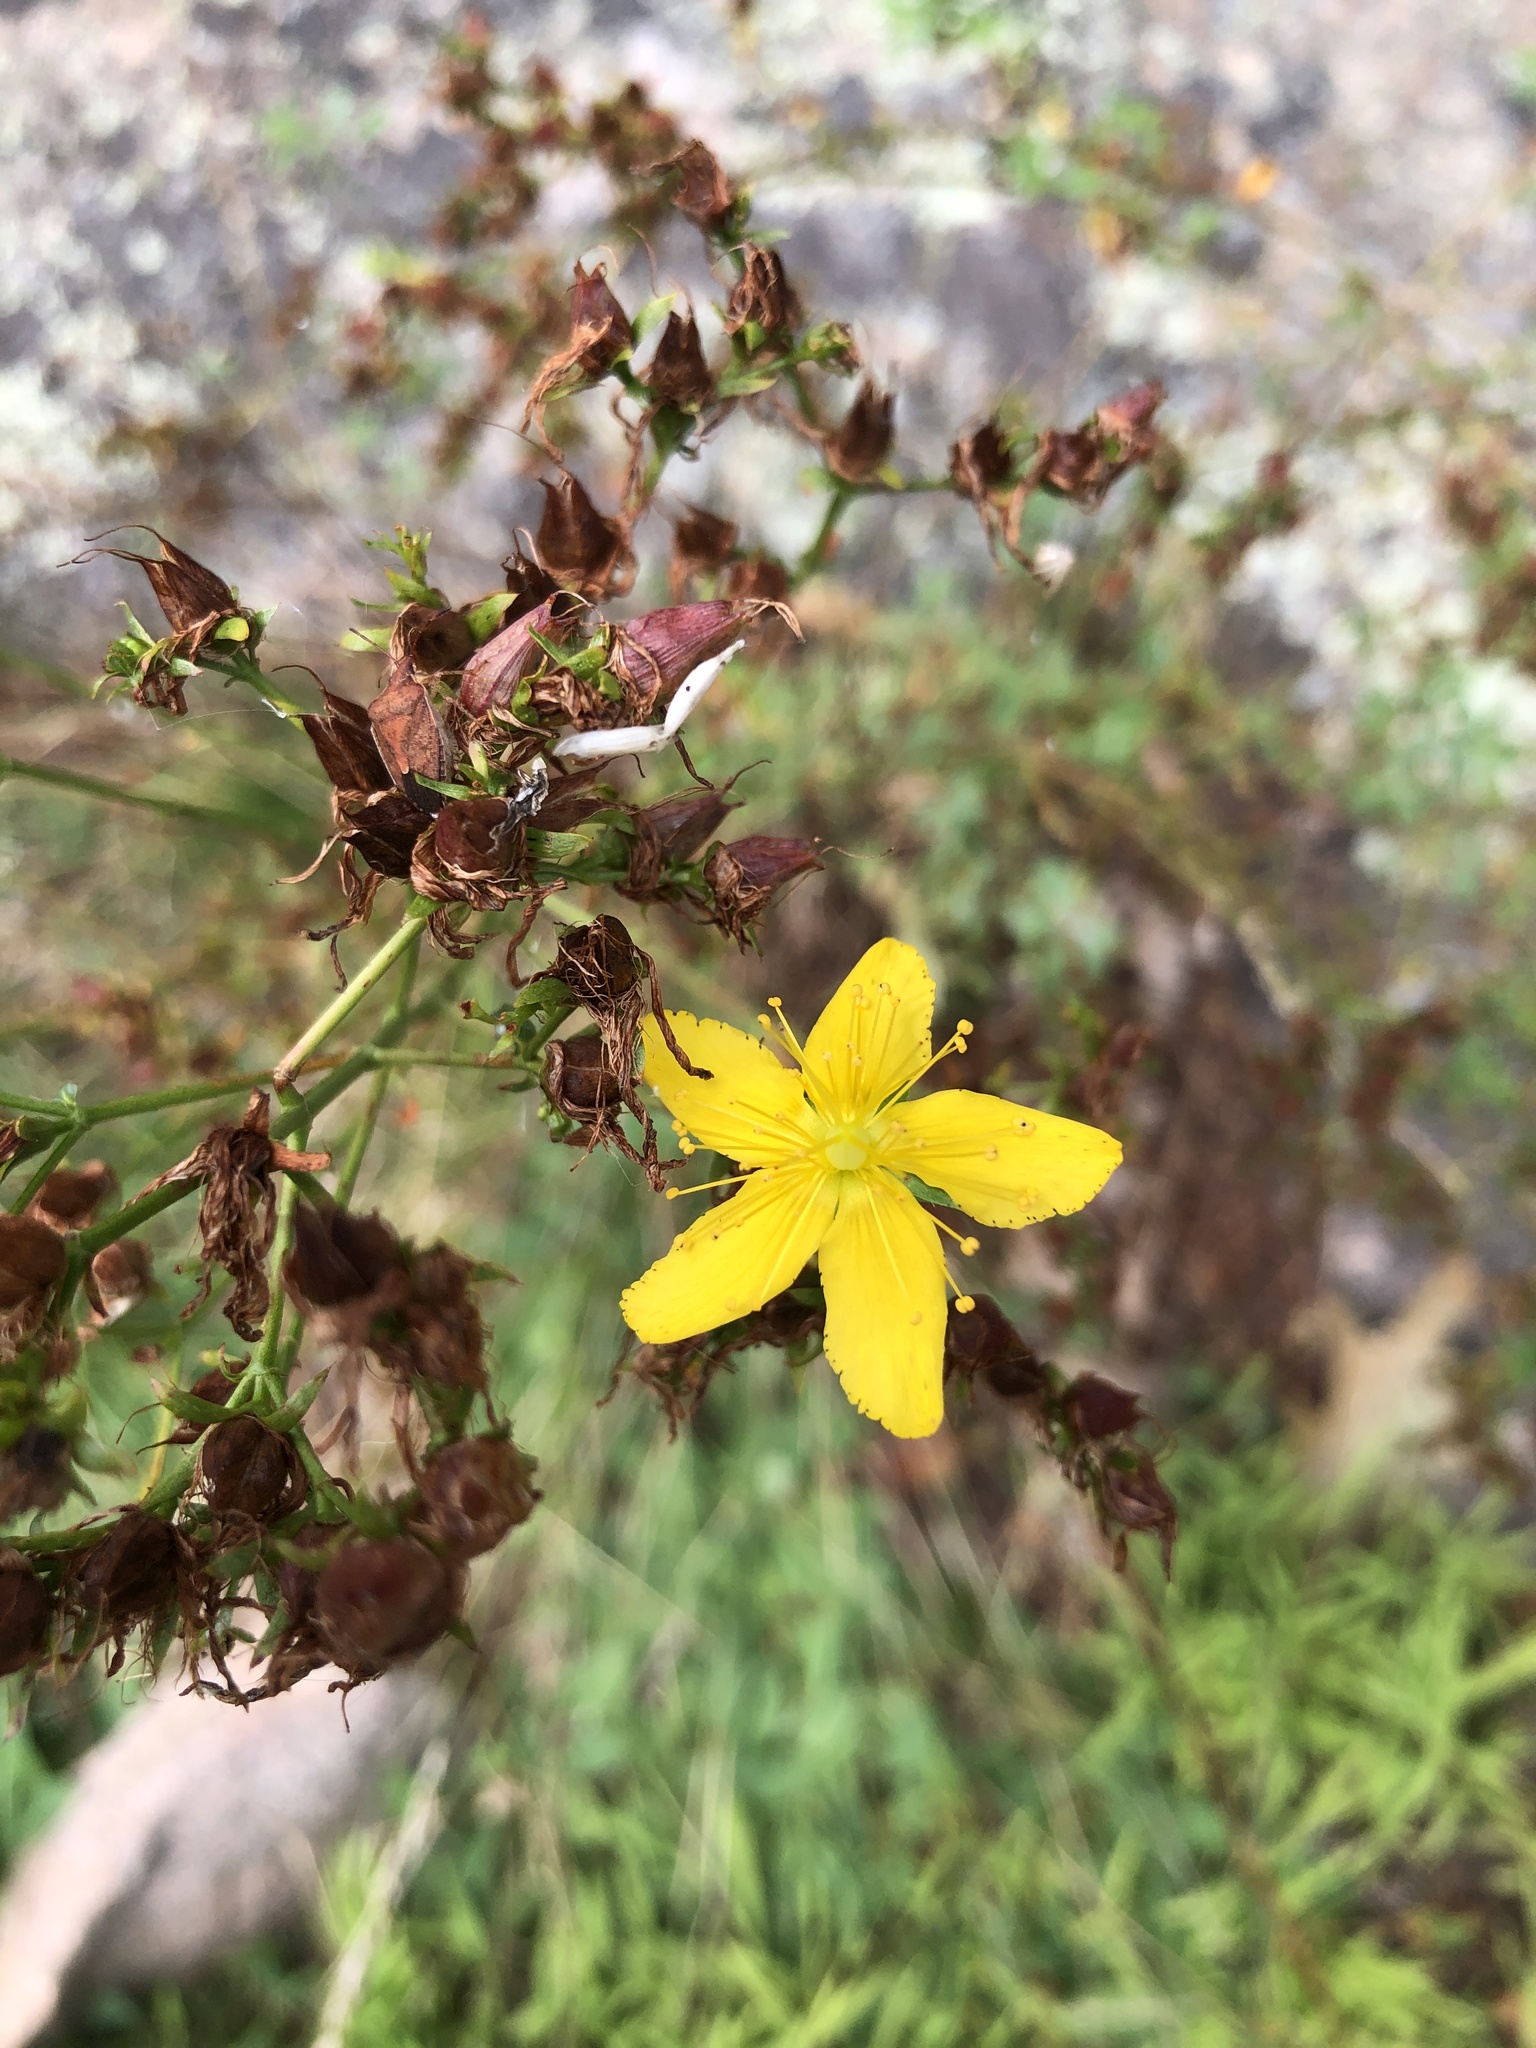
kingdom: Plantae
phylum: Tracheophyta
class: Magnoliopsida
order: Malpighiales
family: Hypericaceae
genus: Hypericum
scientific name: Hypericum perforatum
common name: Common st. johnswort
